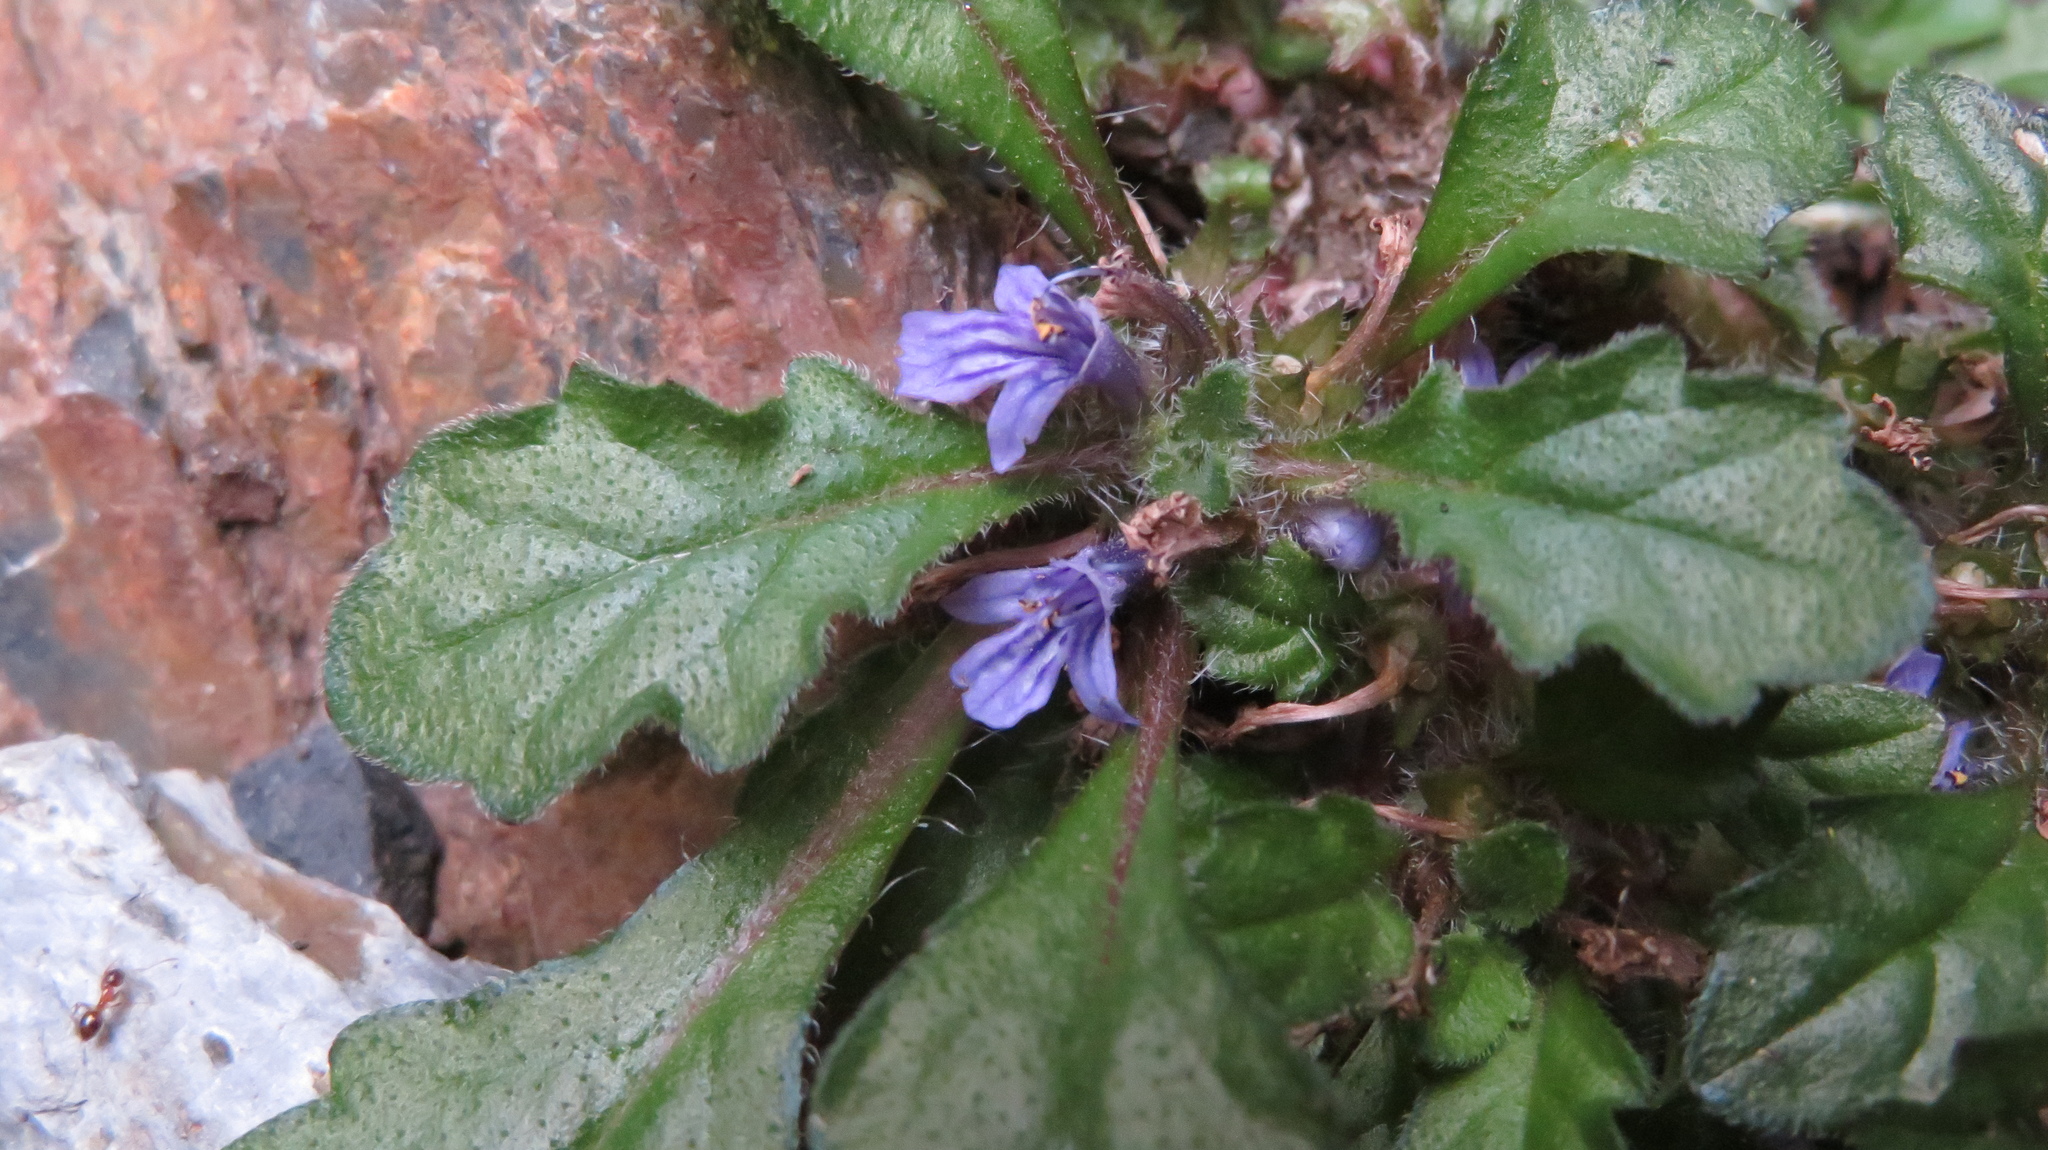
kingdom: Plantae
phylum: Tracheophyta
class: Magnoliopsida
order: Lamiales
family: Lamiaceae
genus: Ajuga
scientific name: Ajuga decumbens
